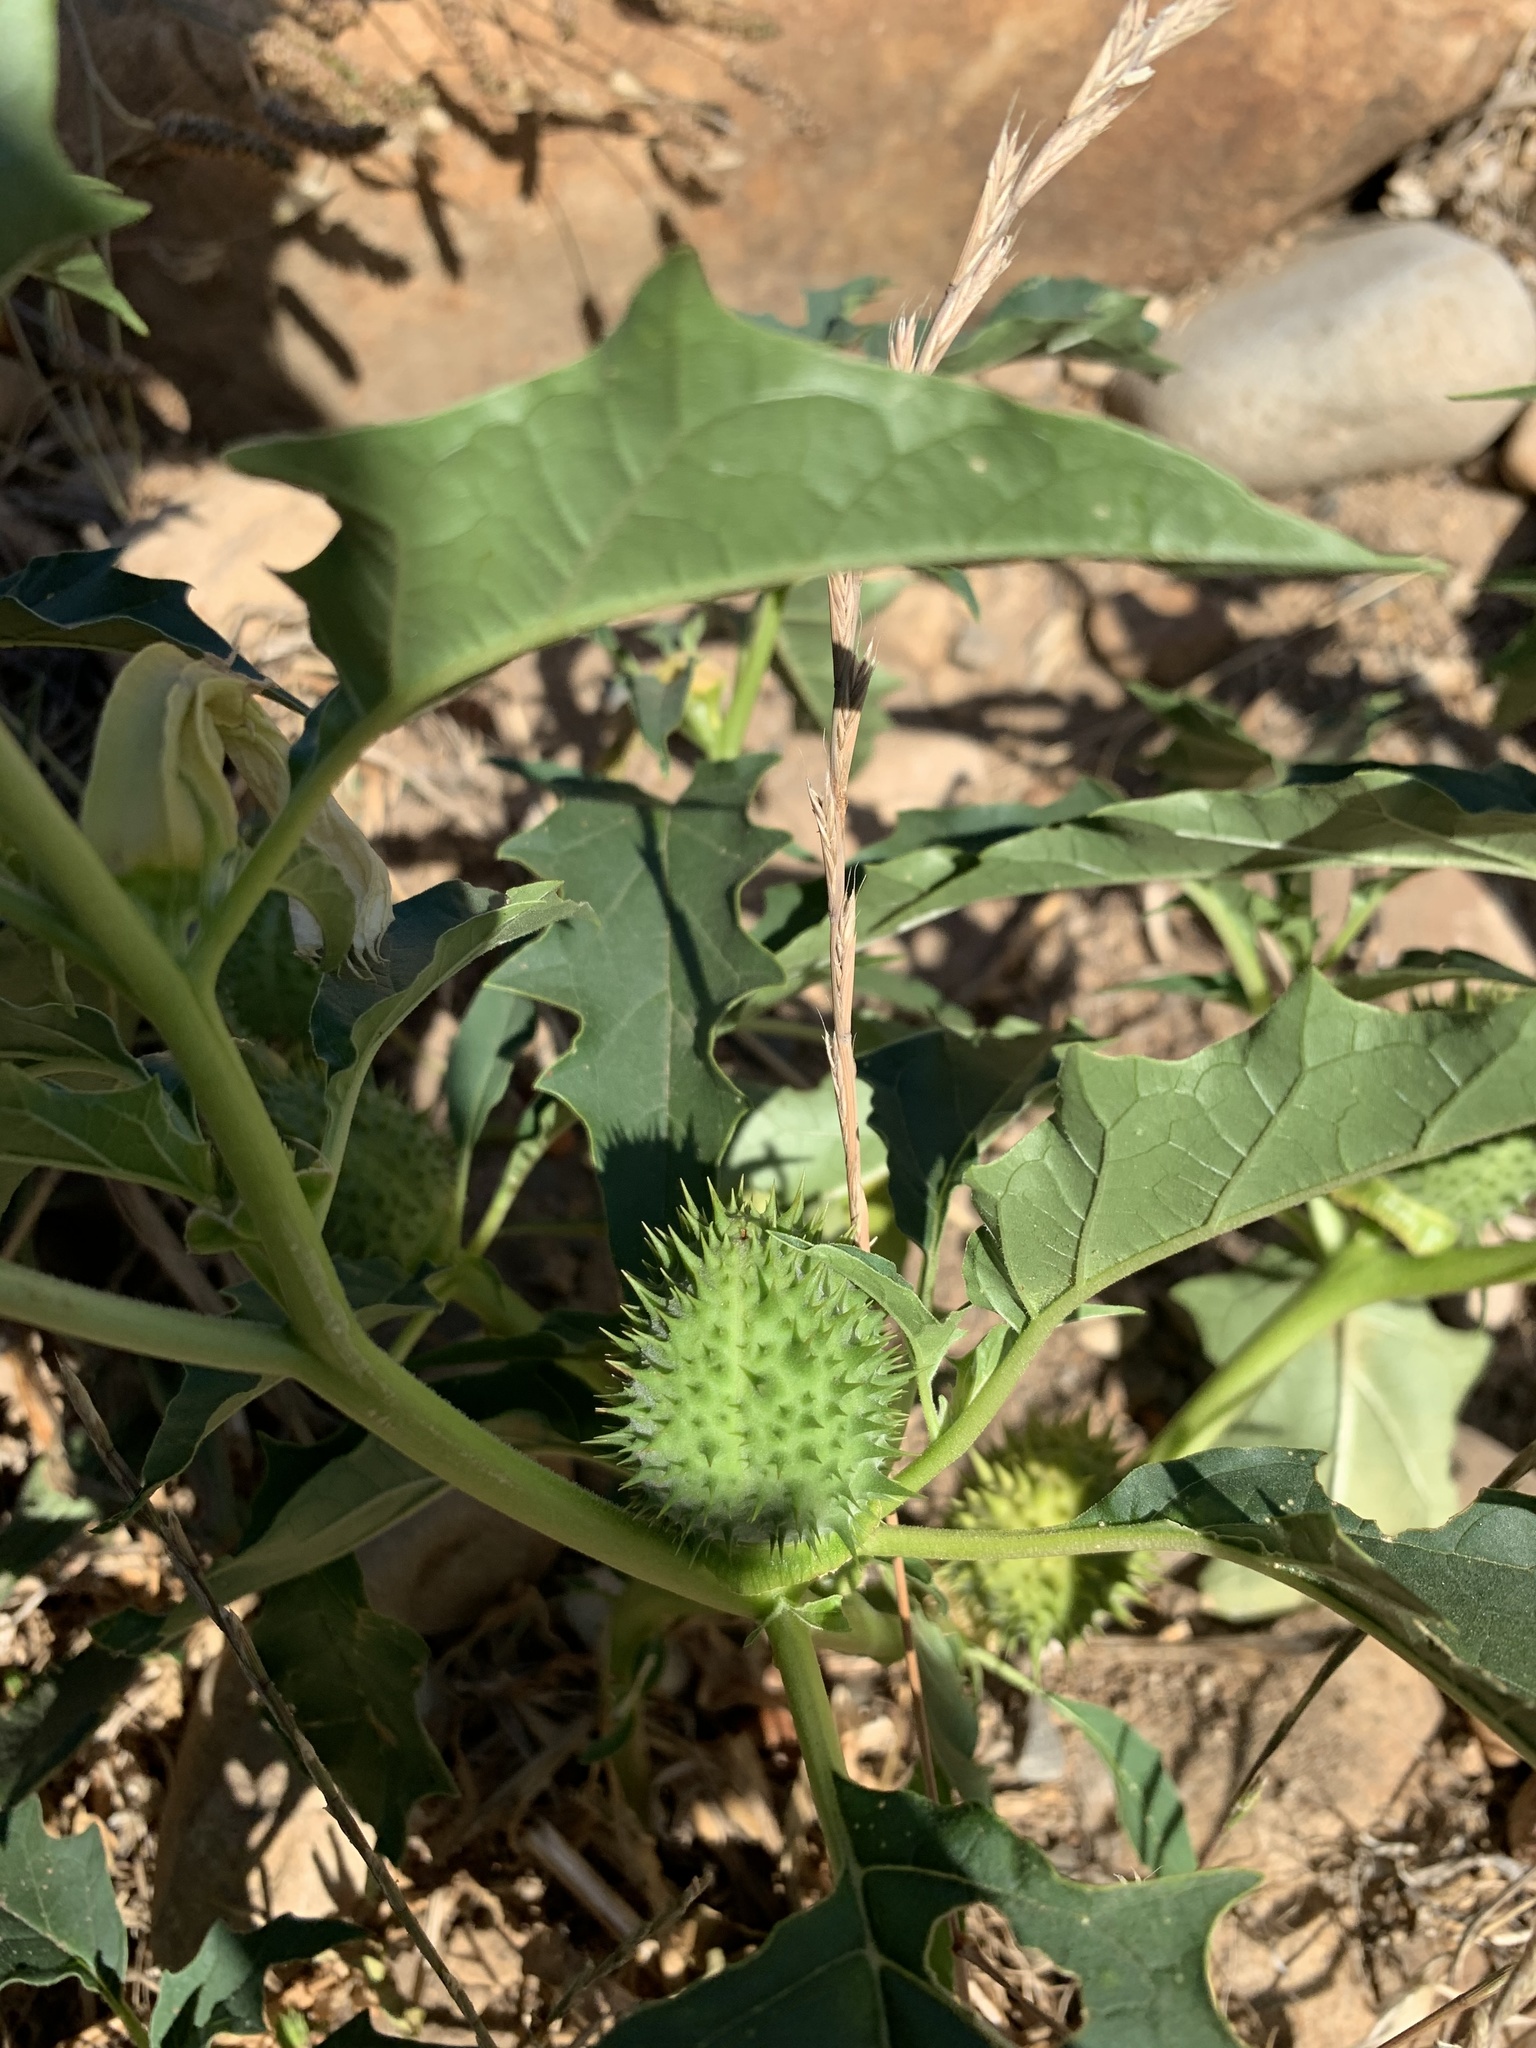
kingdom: Plantae
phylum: Tracheophyta
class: Magnoliopsida
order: Solanales
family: Solanaceae
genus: Datura
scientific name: Datura stramonium
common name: Thorn-apple
